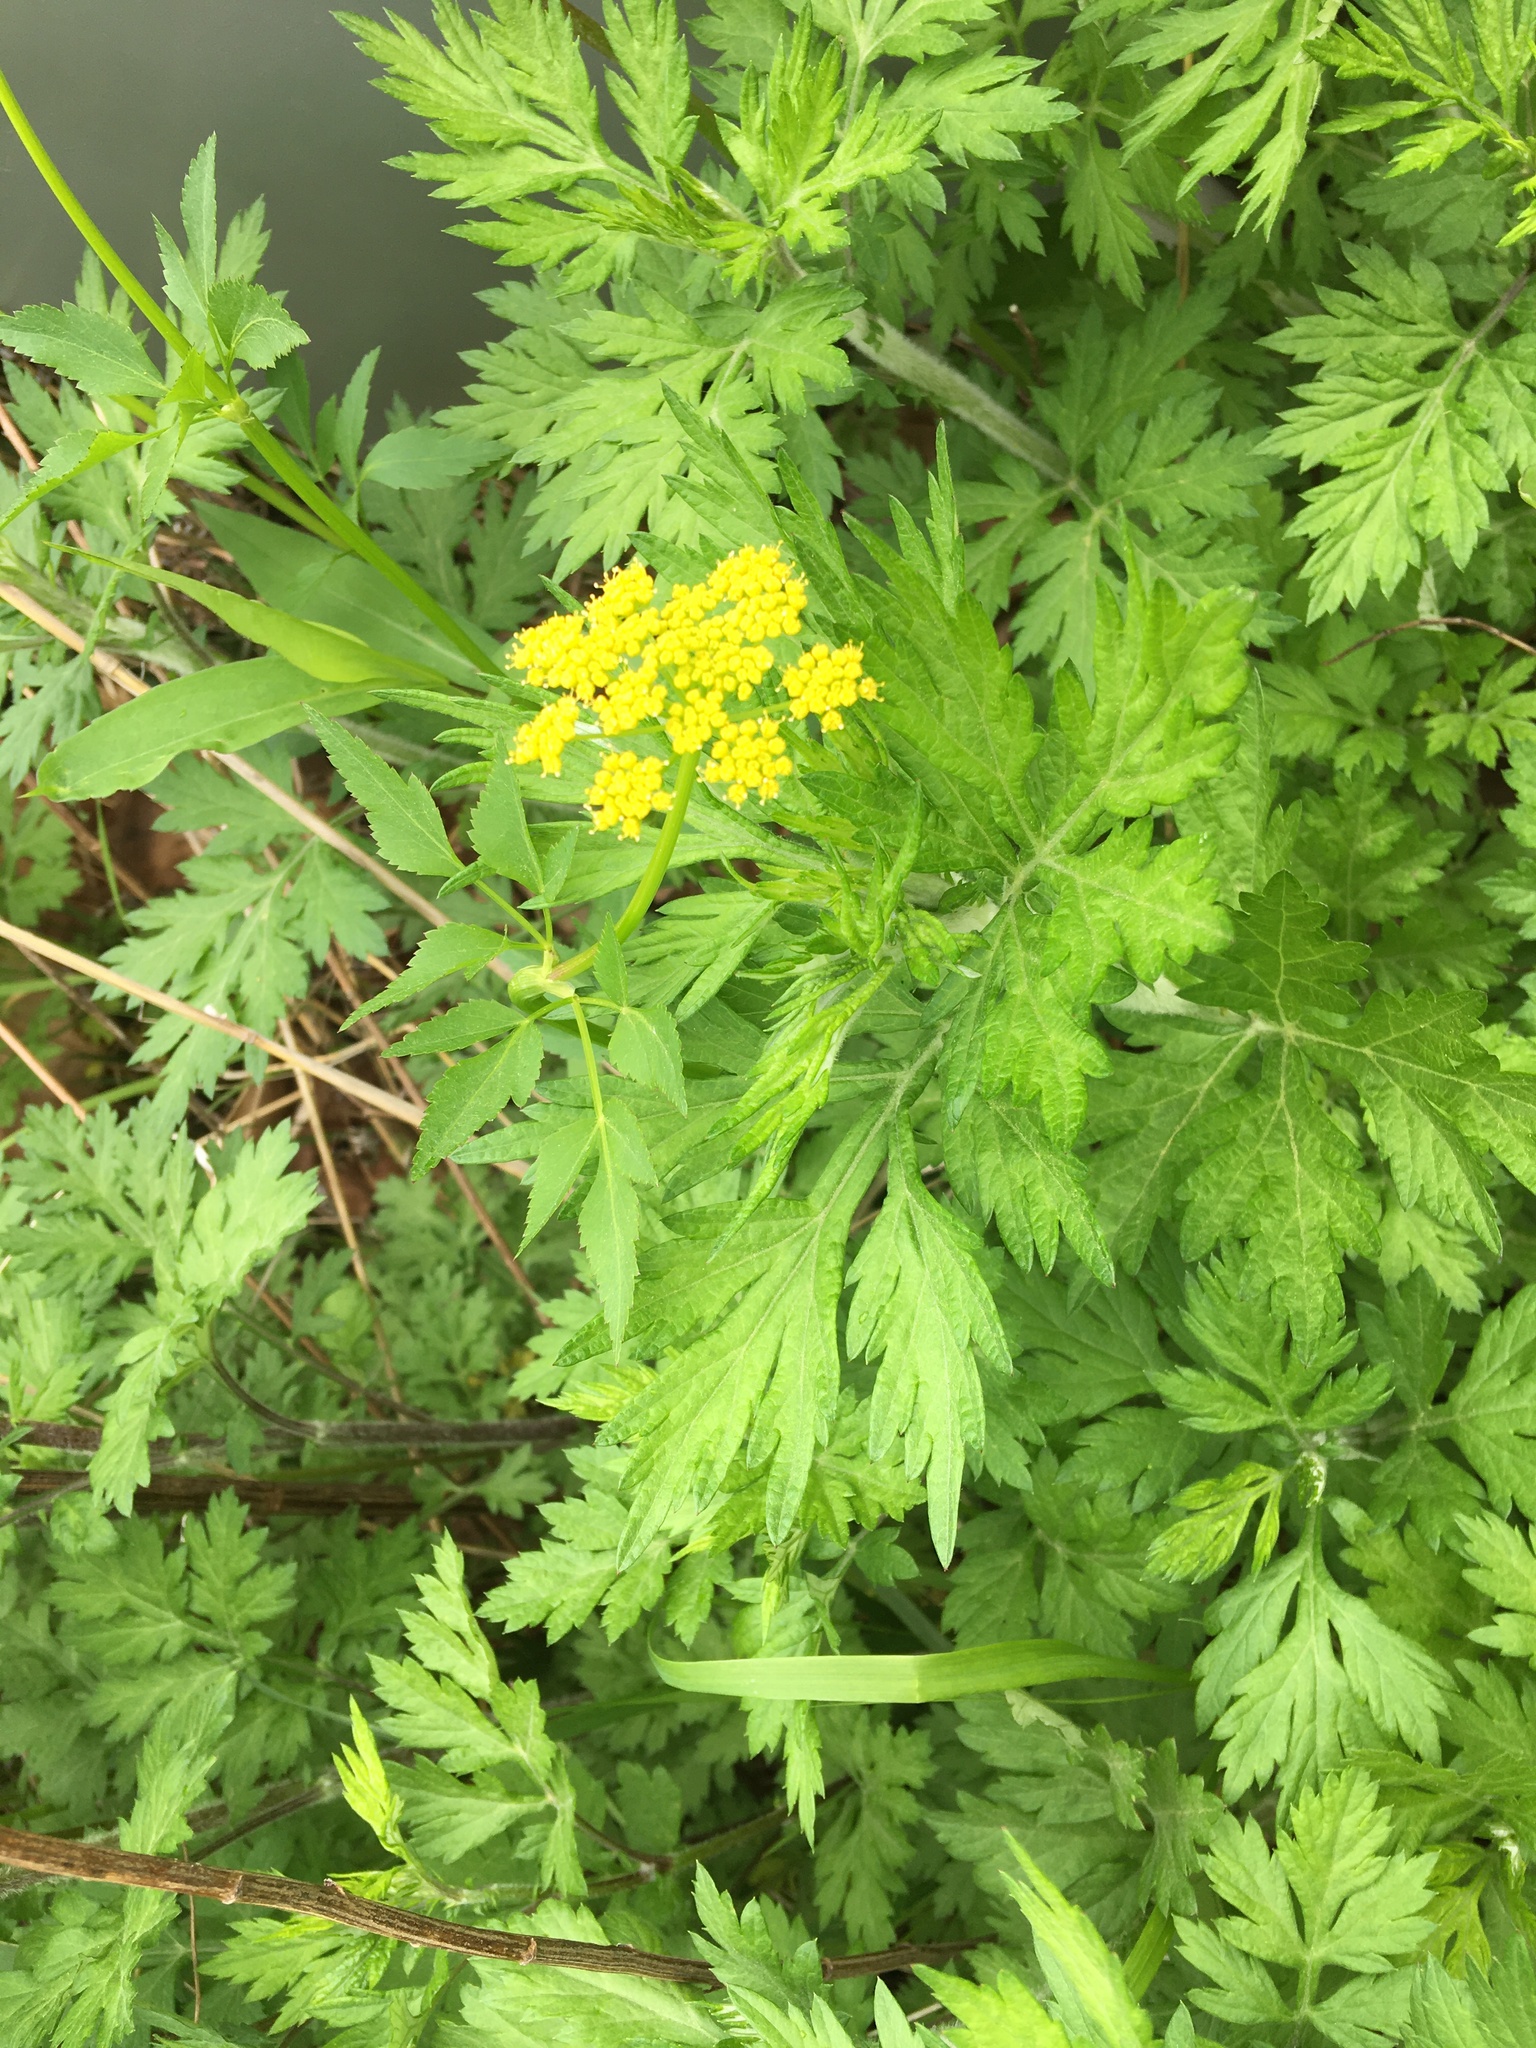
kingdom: Plantae
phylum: Tracheophyta
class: Magnoliopsida
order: Apiales
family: Apiaceae
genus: Zizia
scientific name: Zizia aurea
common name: Golden alexanders
